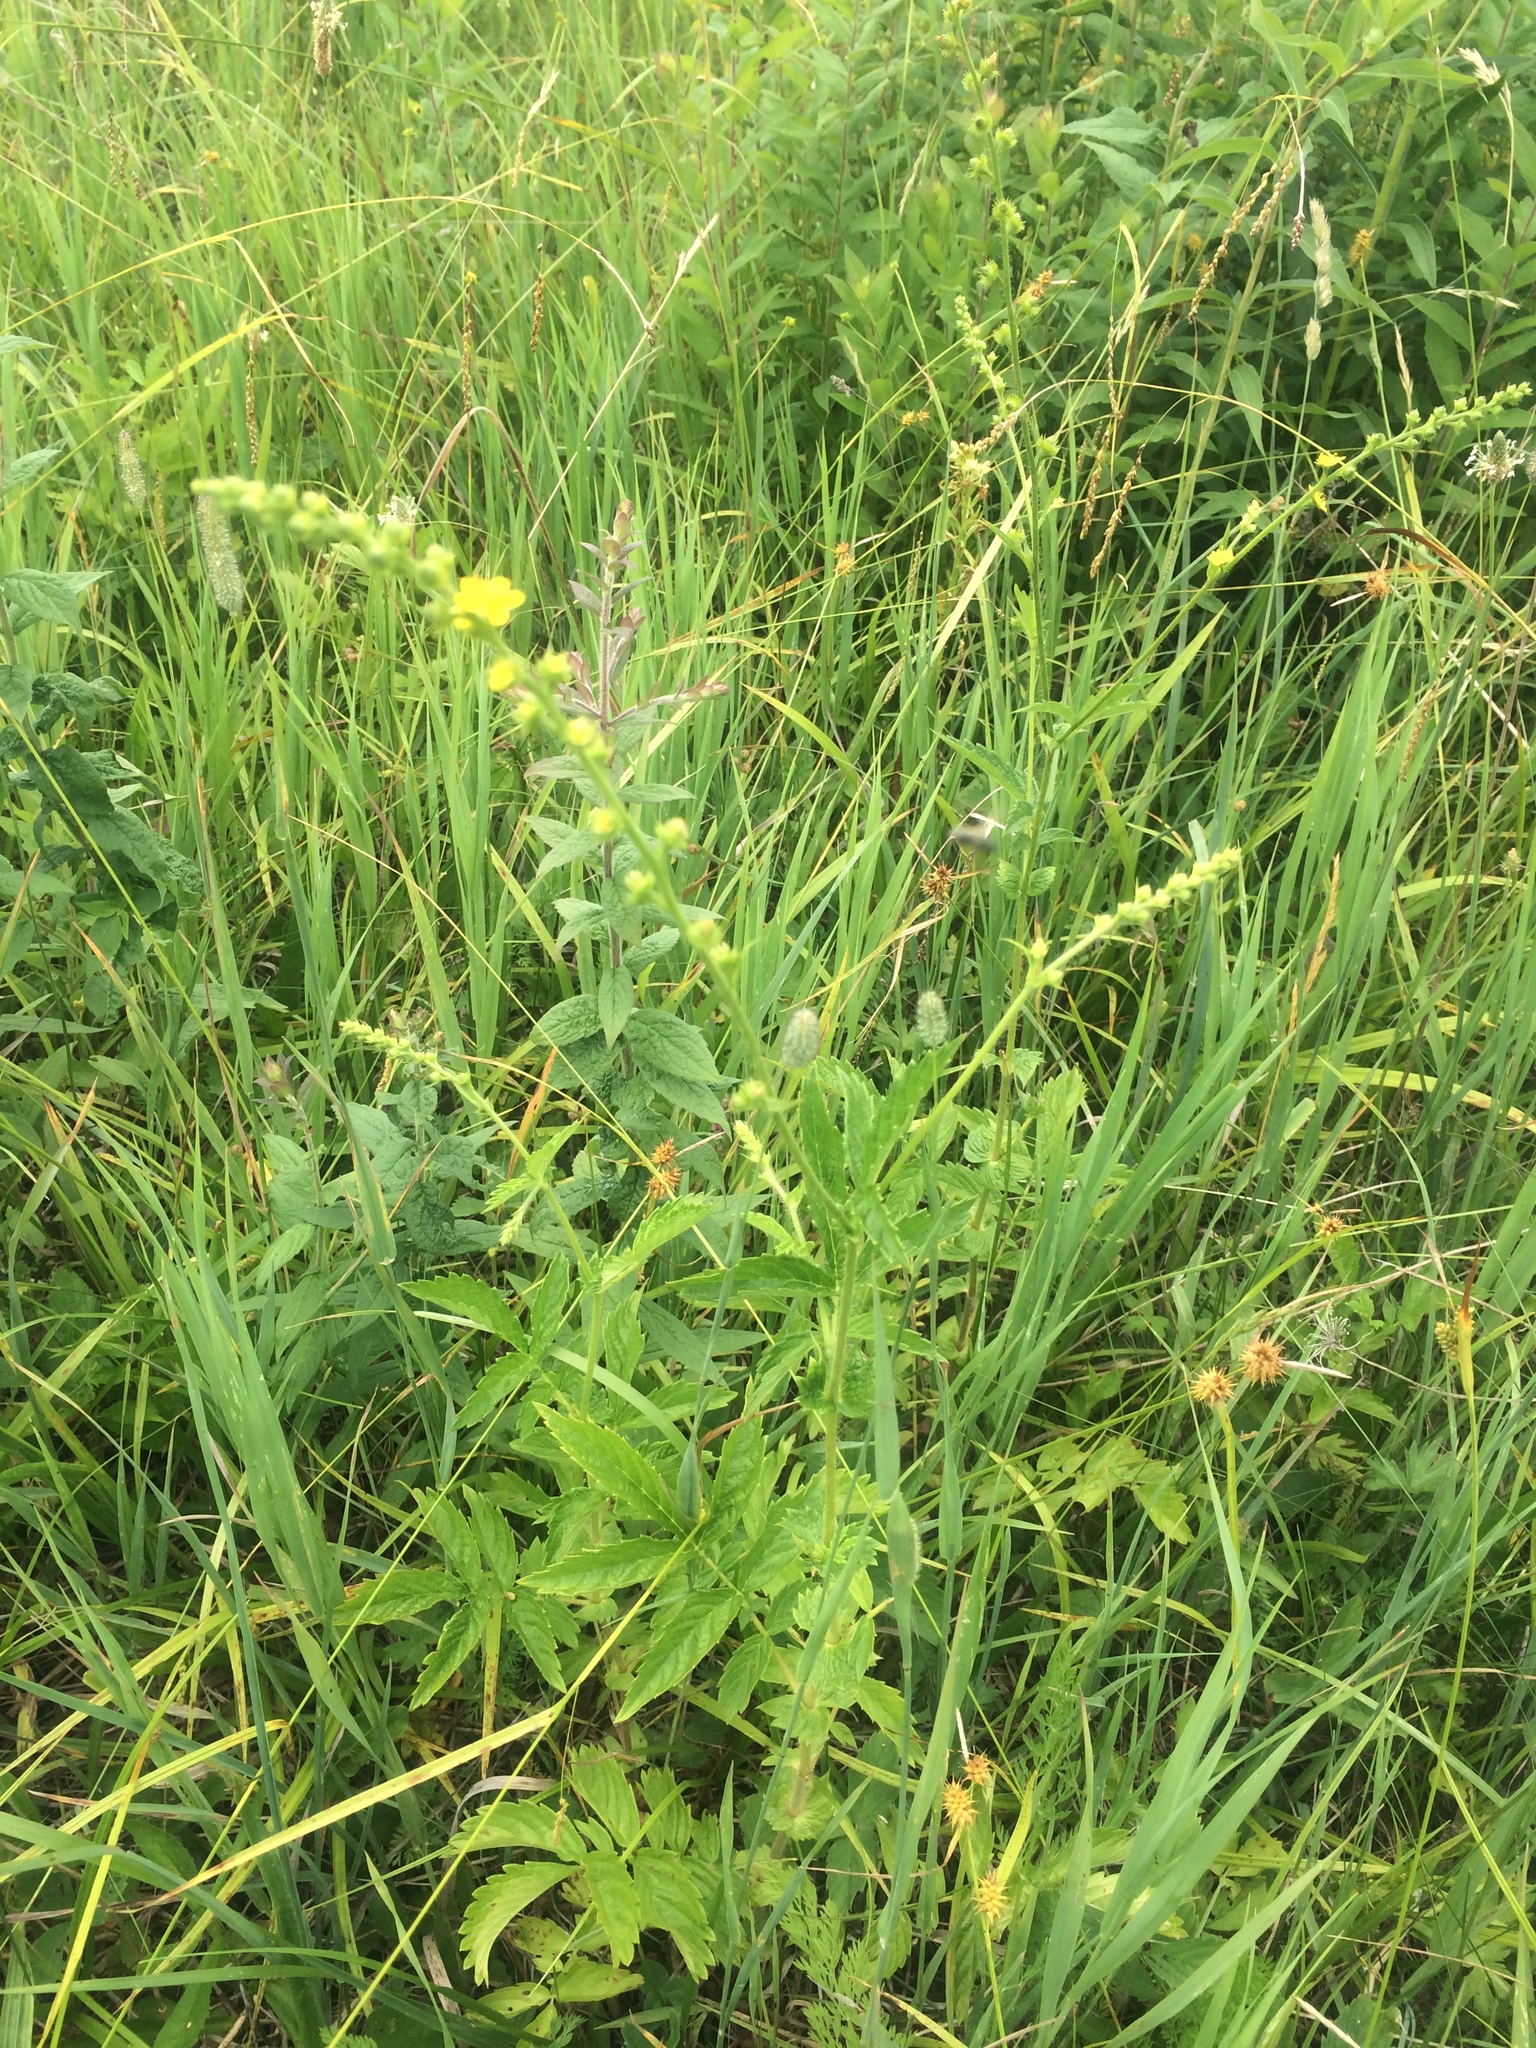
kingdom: Plantae
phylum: Tracheophyta
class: Magnoliopsida
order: Rosales
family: Rosaceae
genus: Agrimonia
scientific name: Agrimonia gryposepala
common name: Common agrimony
